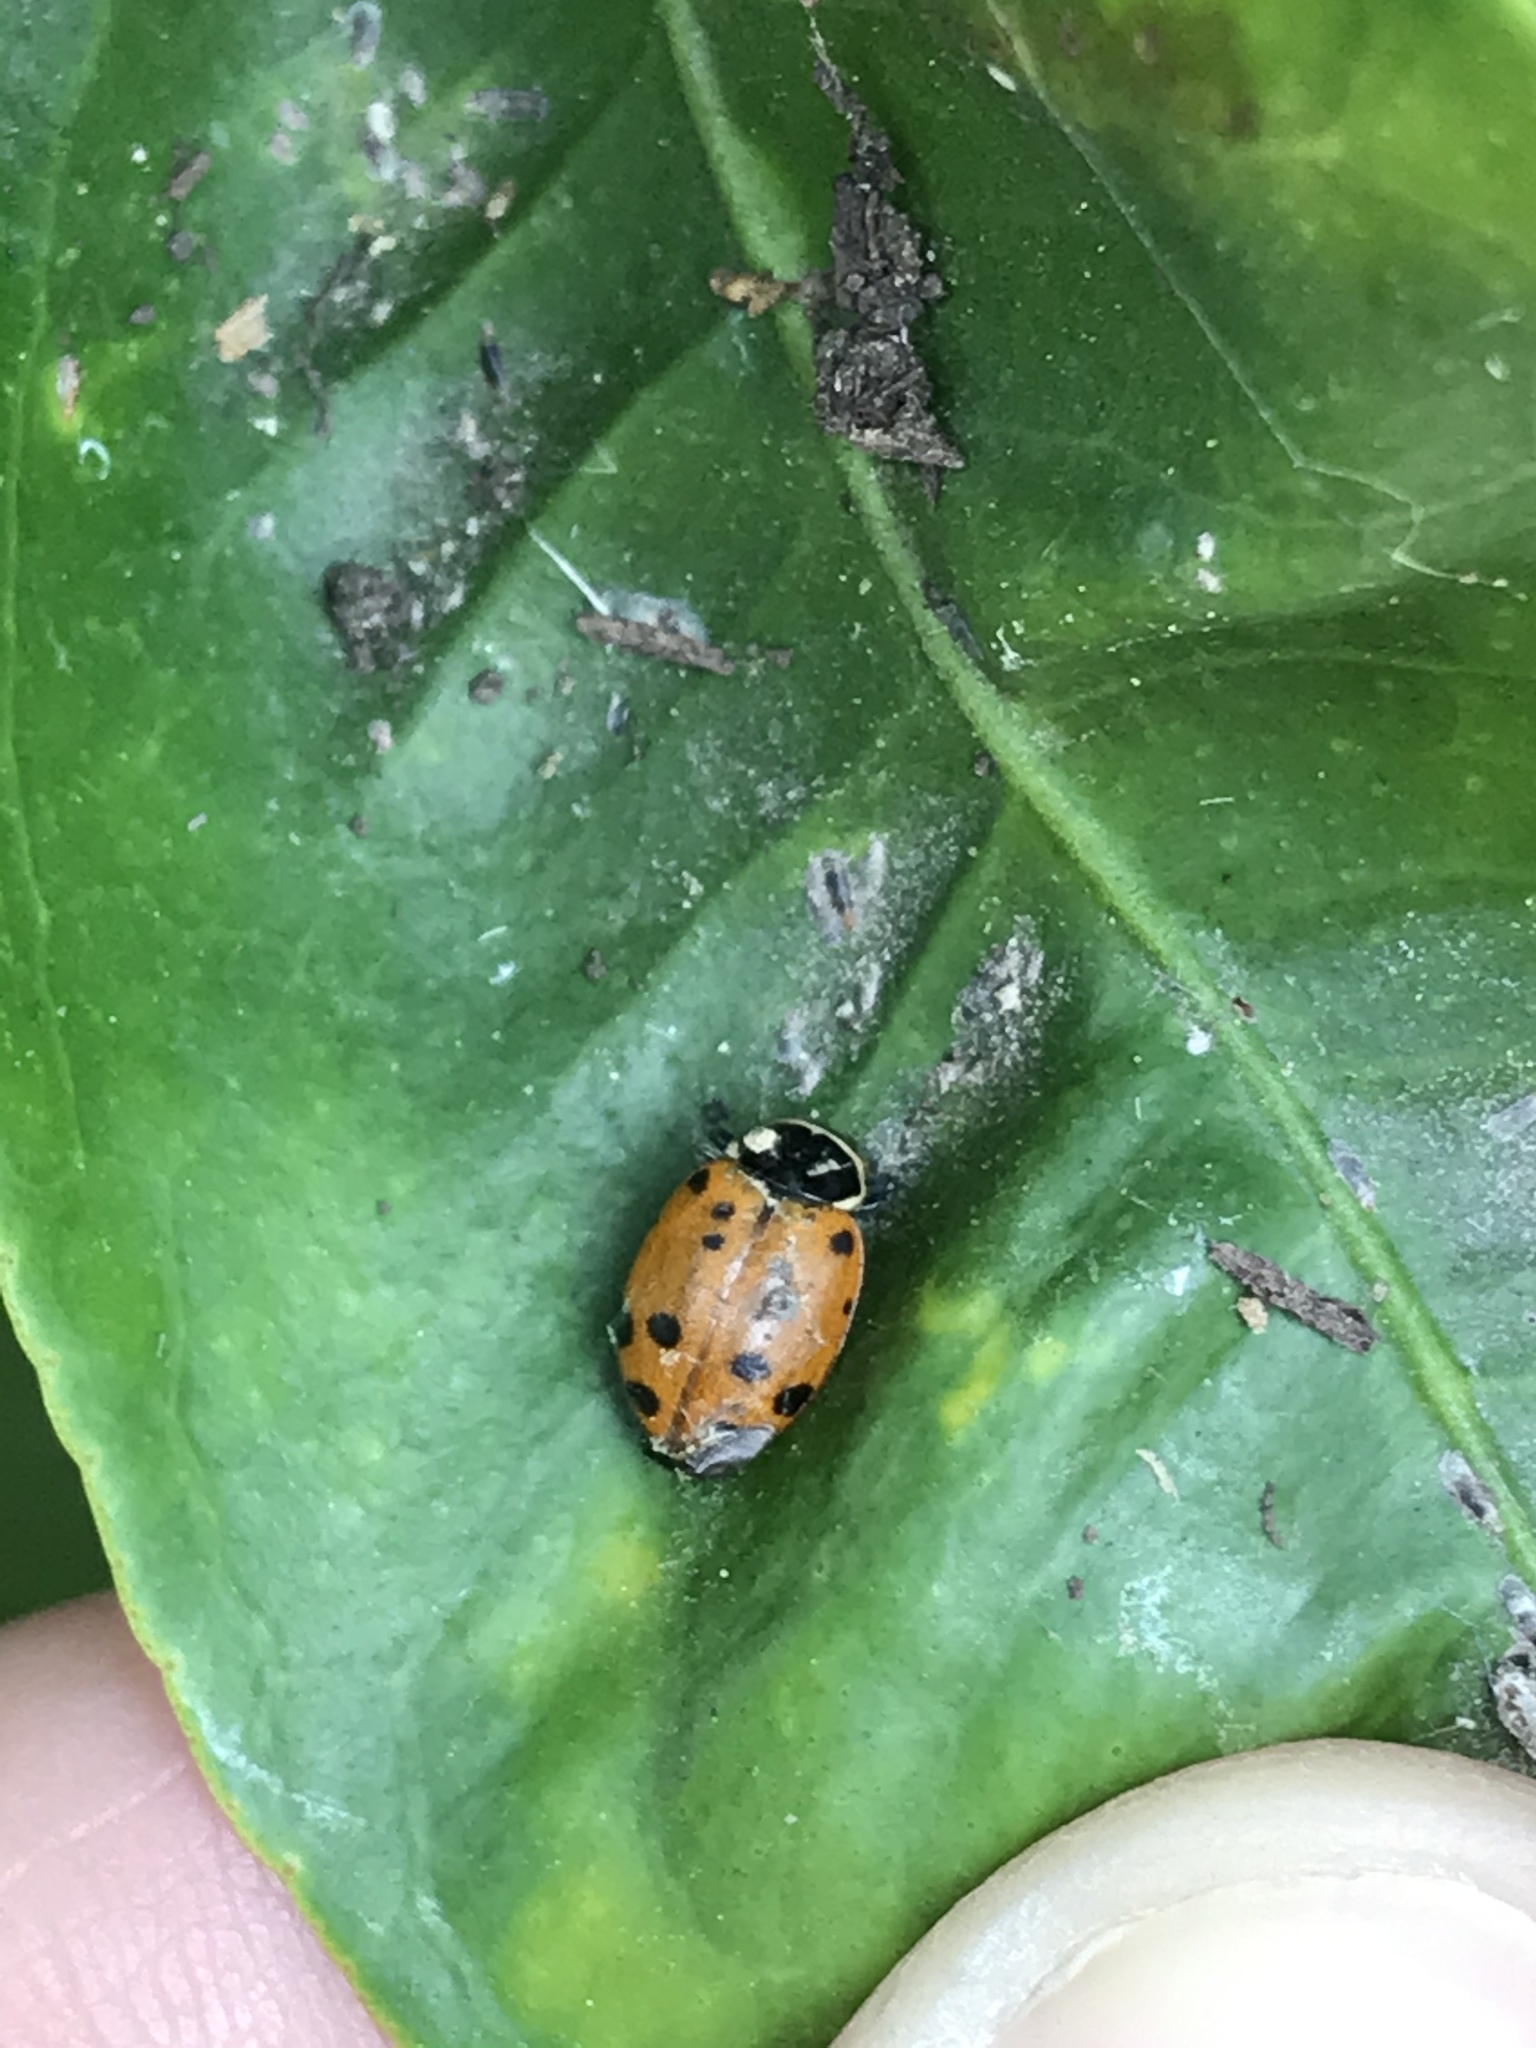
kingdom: Animalia
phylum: Arthropoda
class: Insecta
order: Coleoptera
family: Coccinellidae
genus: Hippodamia
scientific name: Hippodamia convergens
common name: Convergent lady beetle
